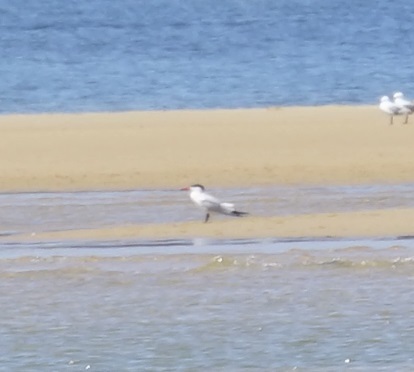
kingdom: Animalia
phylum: Chordata
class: Aves
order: Charadriiformes
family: Laridae
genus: Hydroprogne
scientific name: Hydroprogne caspia
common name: Caspian tern
